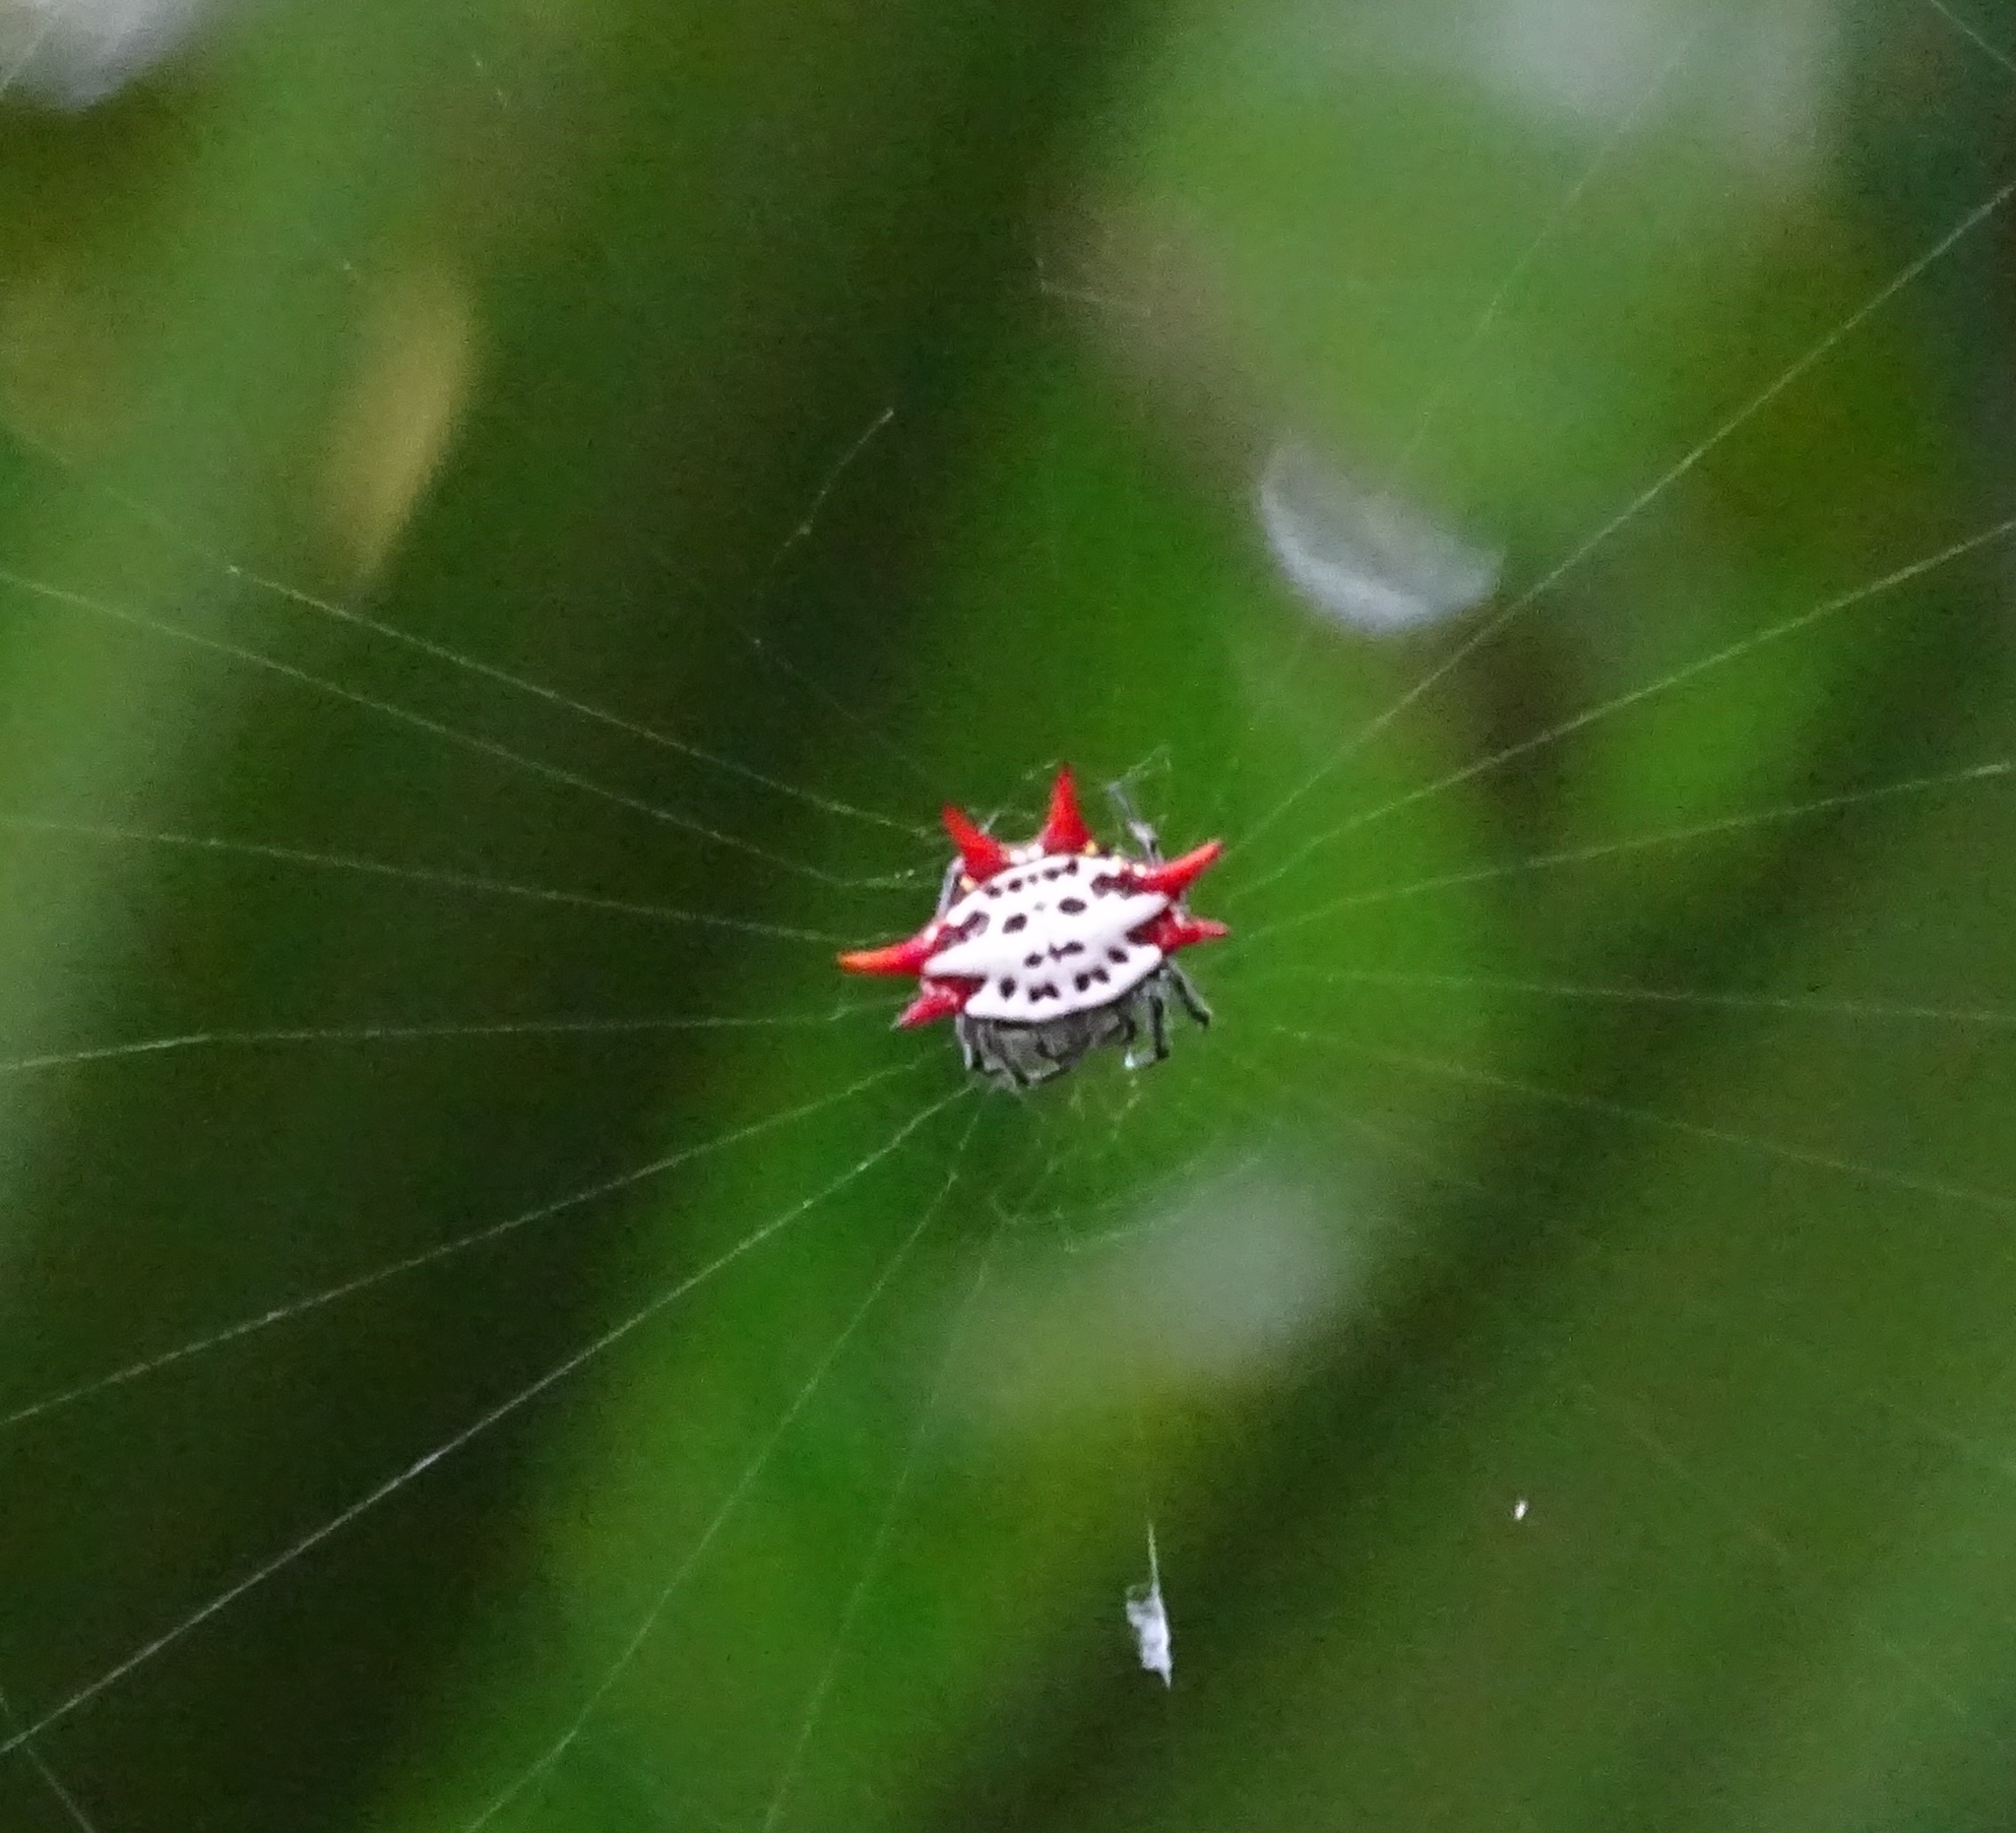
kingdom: Animalia
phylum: Arthropoda
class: Arachnida
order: Araneae
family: Araneidae
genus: Gasteracantha
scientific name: Gasteracantha cancriformis
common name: Orb weavers
